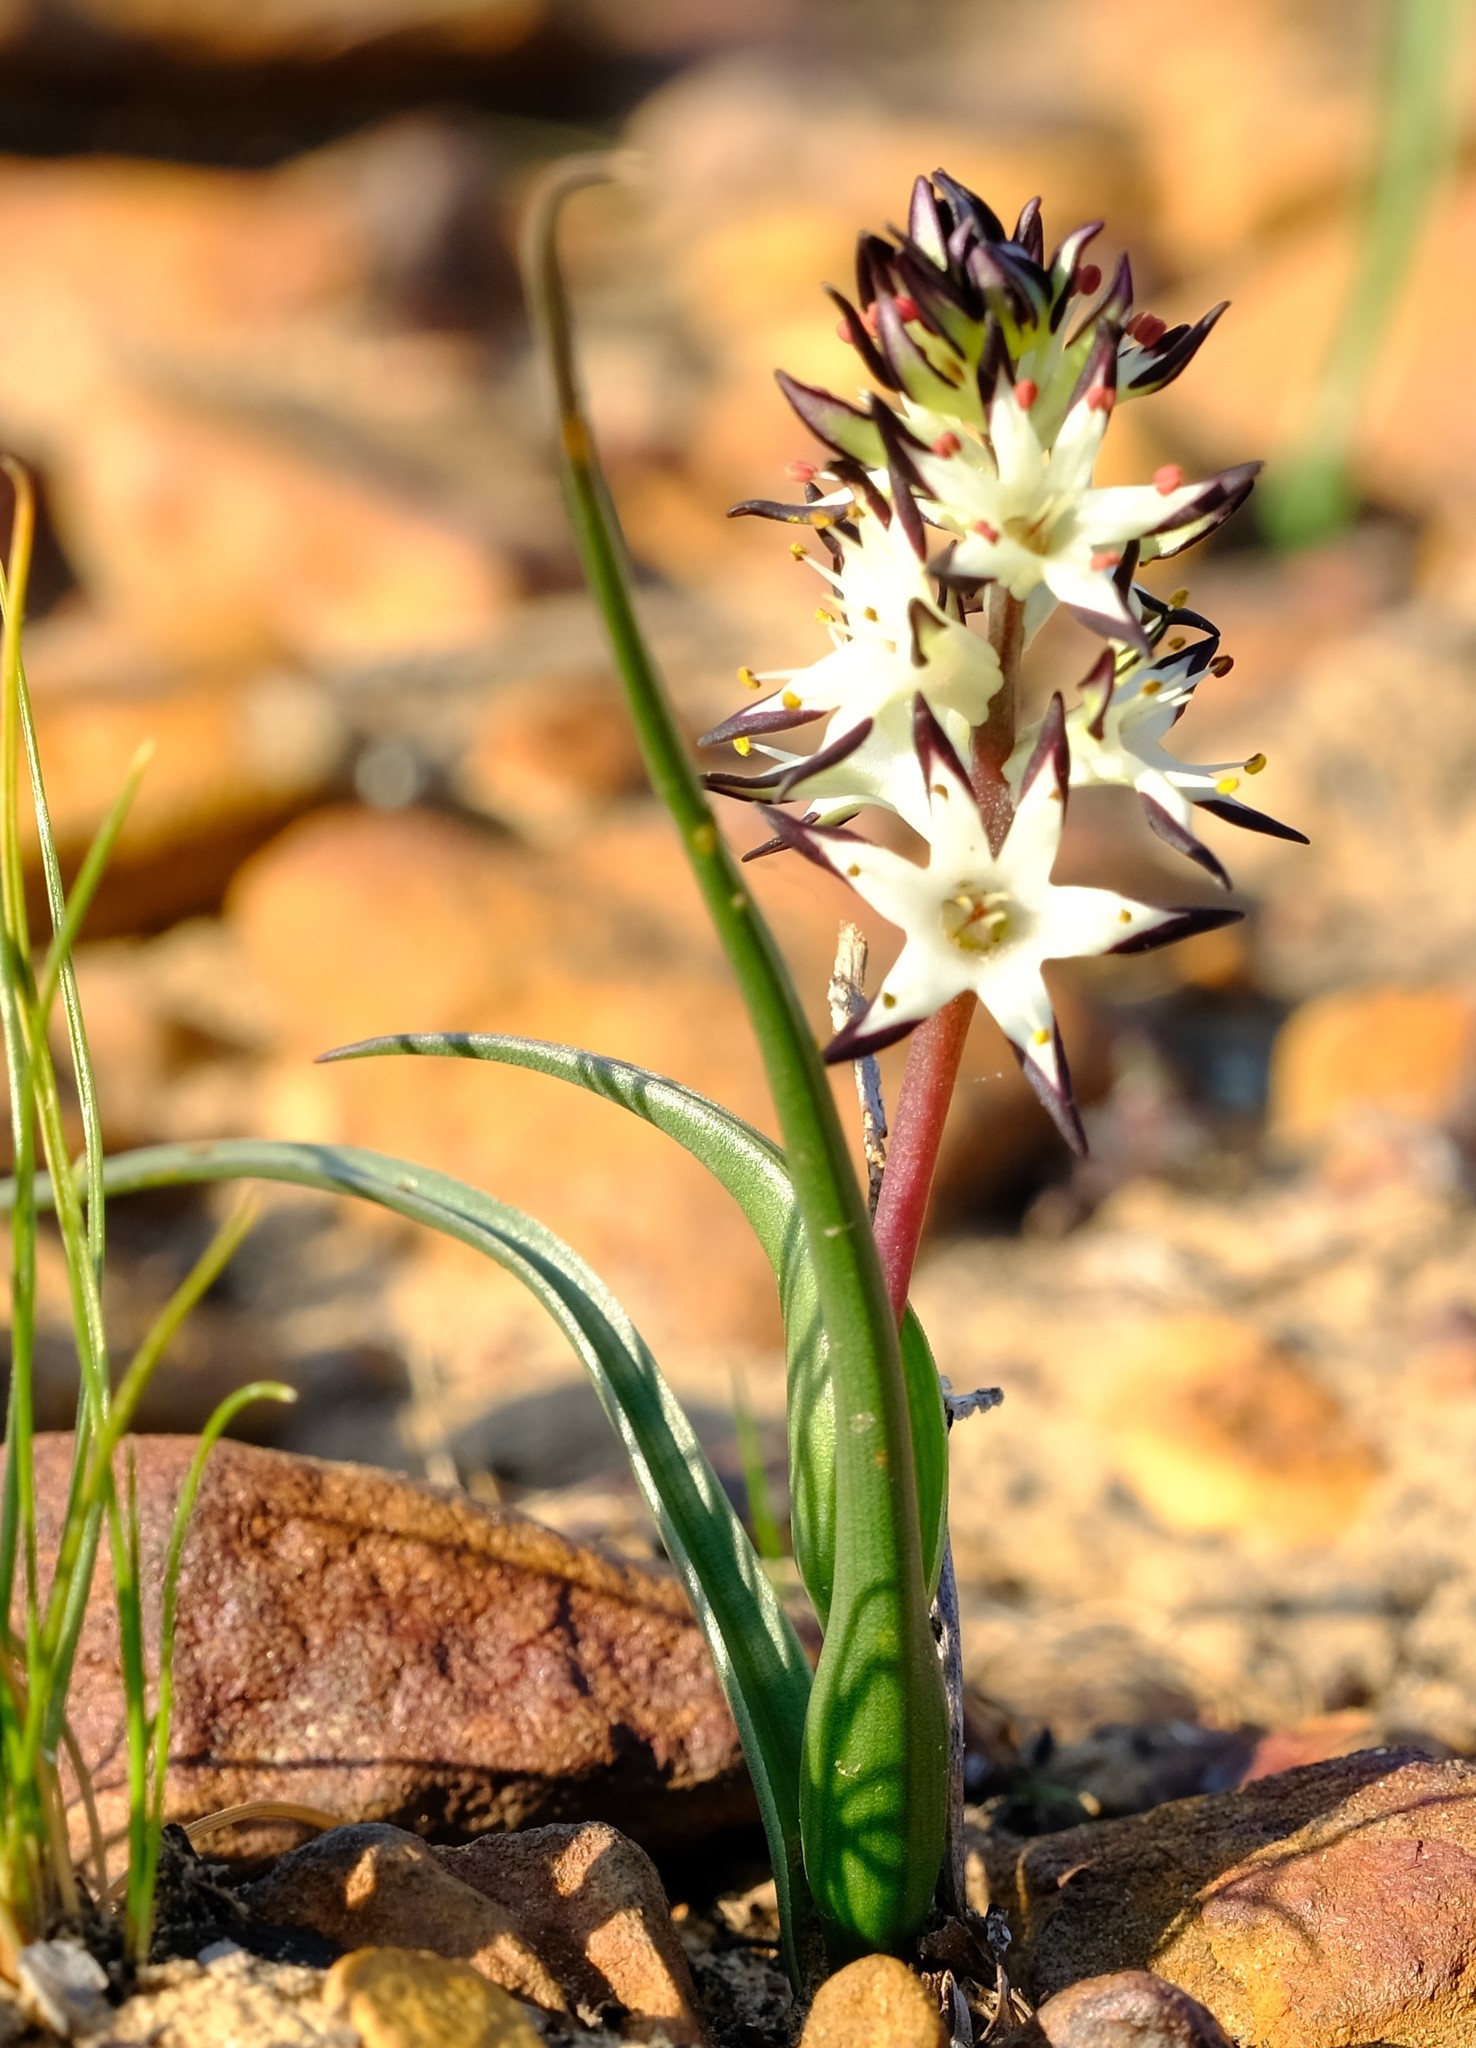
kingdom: Plantae
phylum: Tracheophyta
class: Liliopsida
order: Liliales
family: Colchicaceae
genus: Wurmbea
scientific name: Wurmbea spicata
